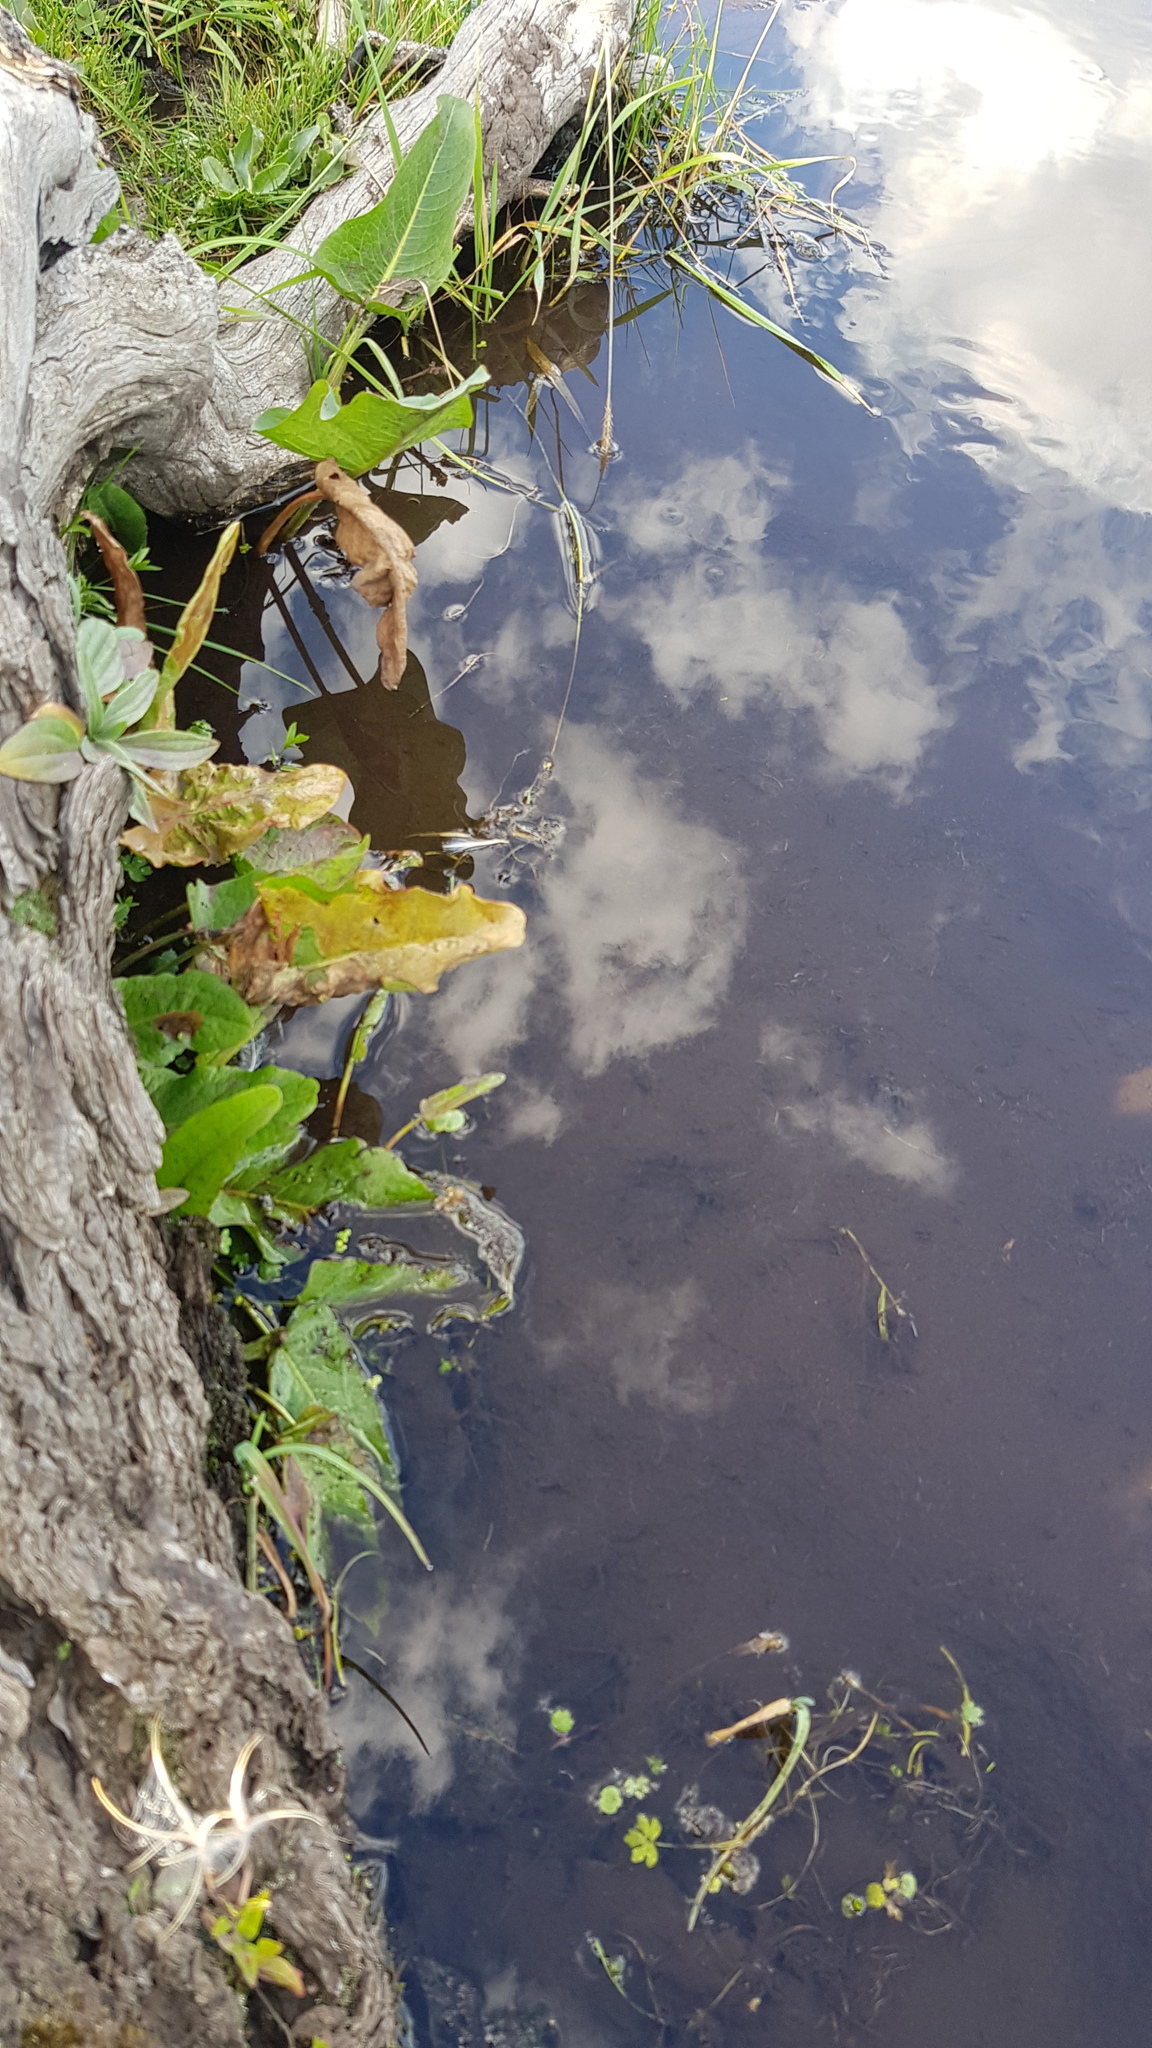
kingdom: Plantae
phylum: Tracheophyta
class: Magnoliopsida
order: Caryophyllales
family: Polygonaceae
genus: Rumex
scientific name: Rumex stenophyllus
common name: Narrowleaf dock
